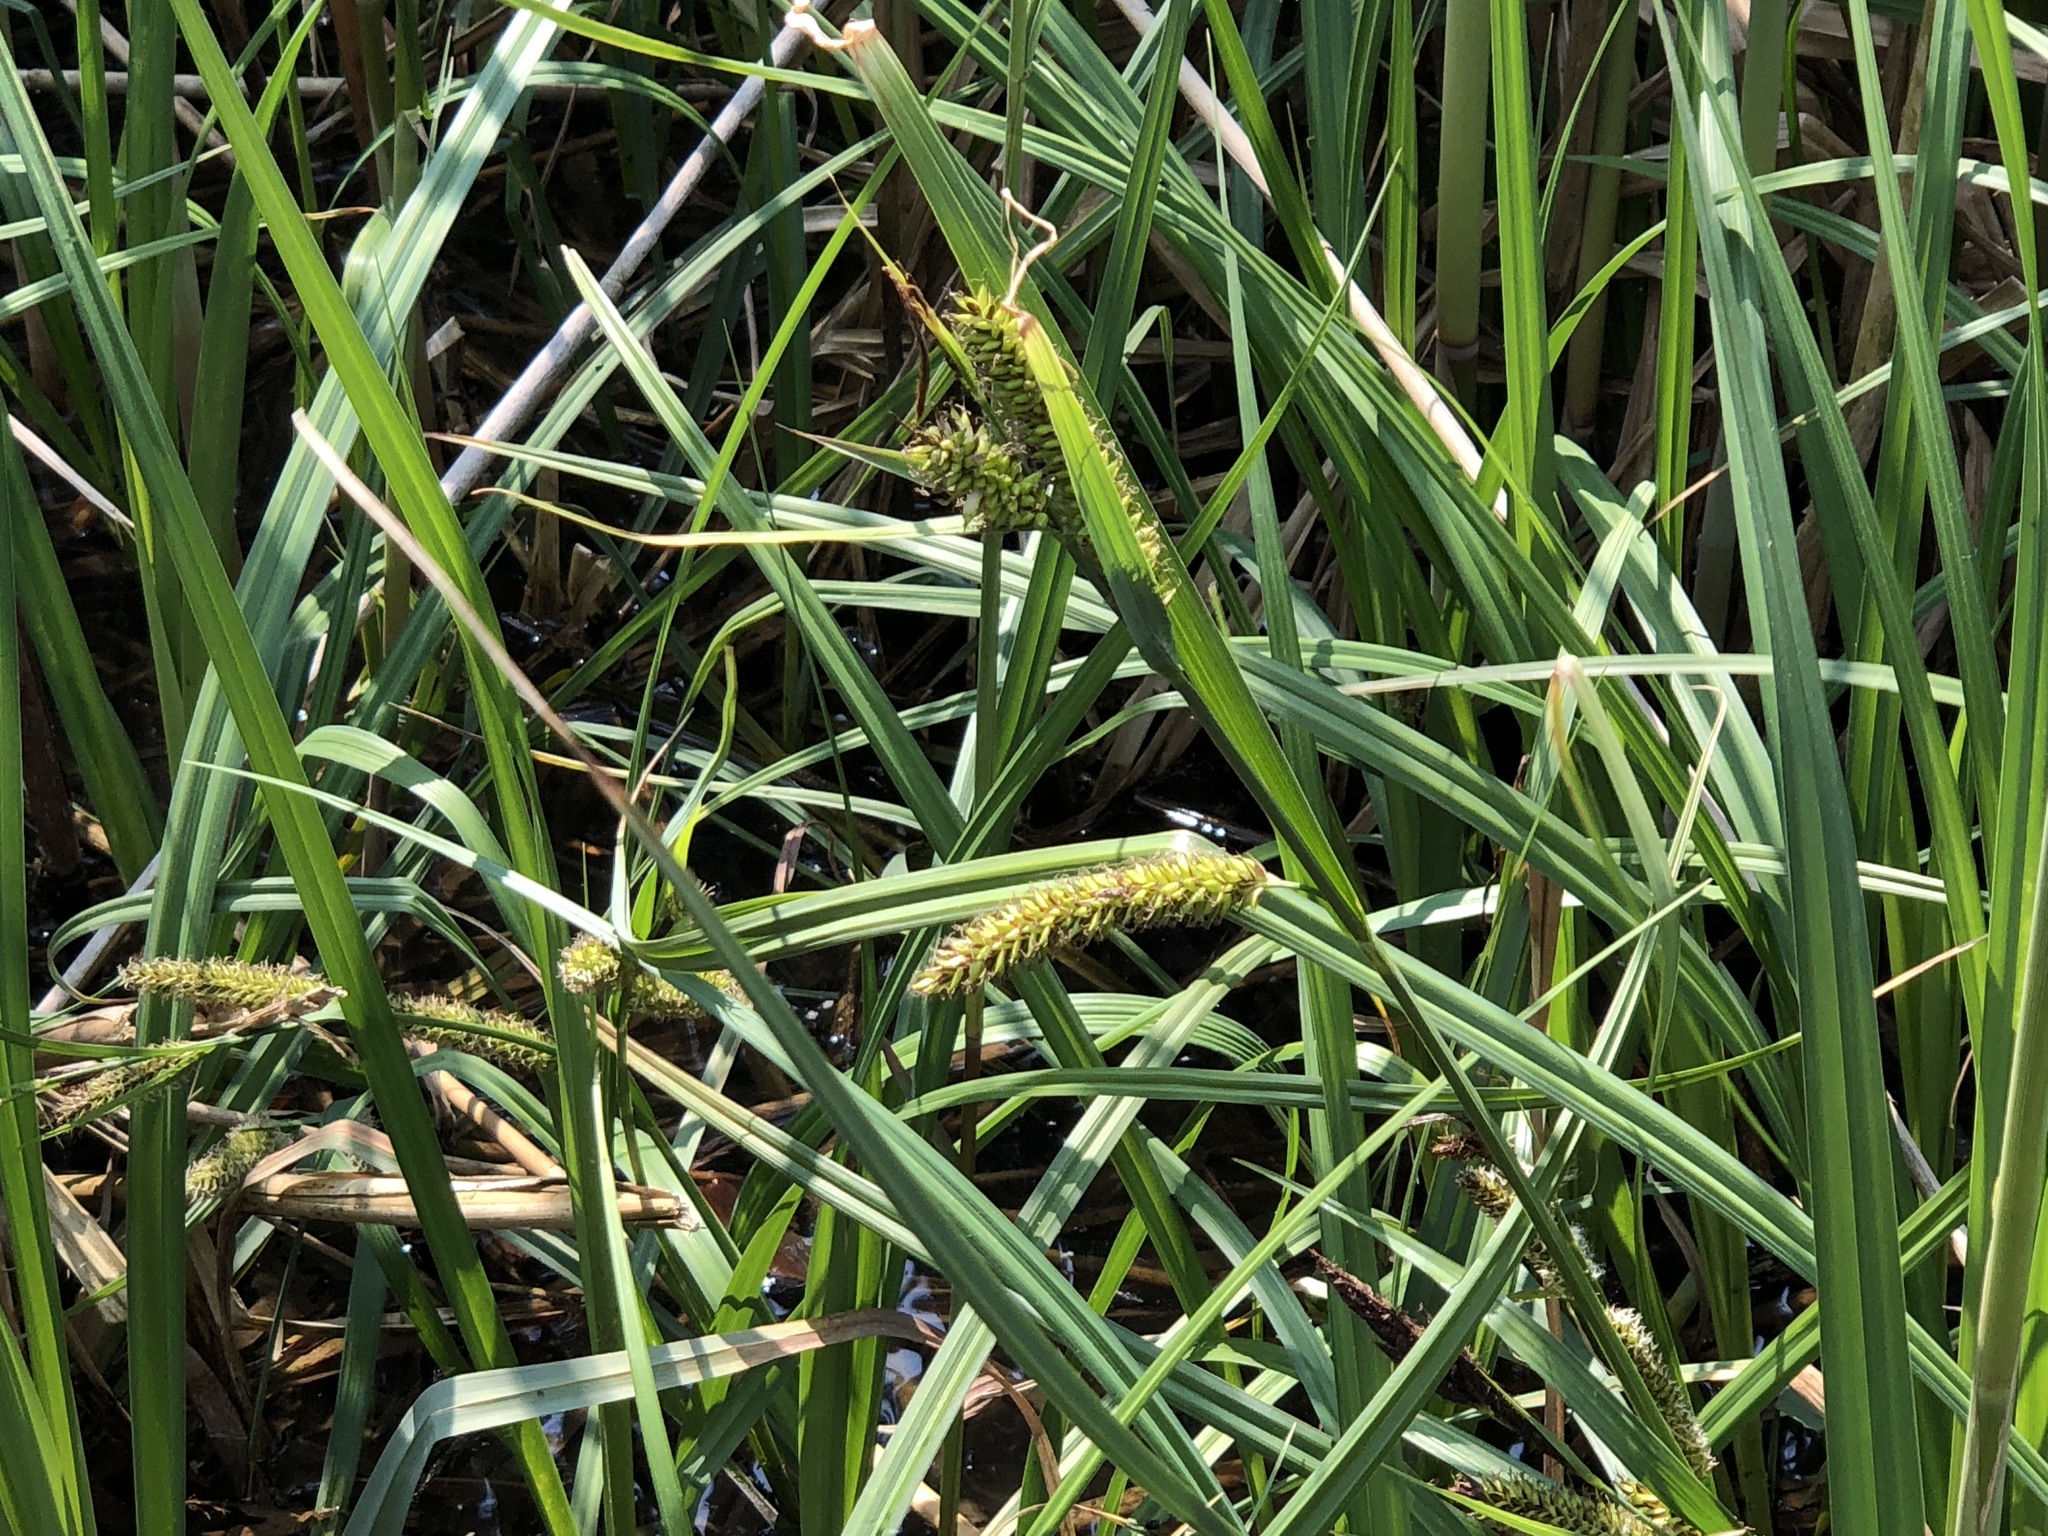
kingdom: Plantae
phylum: Tracheophyta
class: Liliopsida
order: Poales
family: Cyperaceae
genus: Carex
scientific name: Carex riparia
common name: Greater pond-sedge
